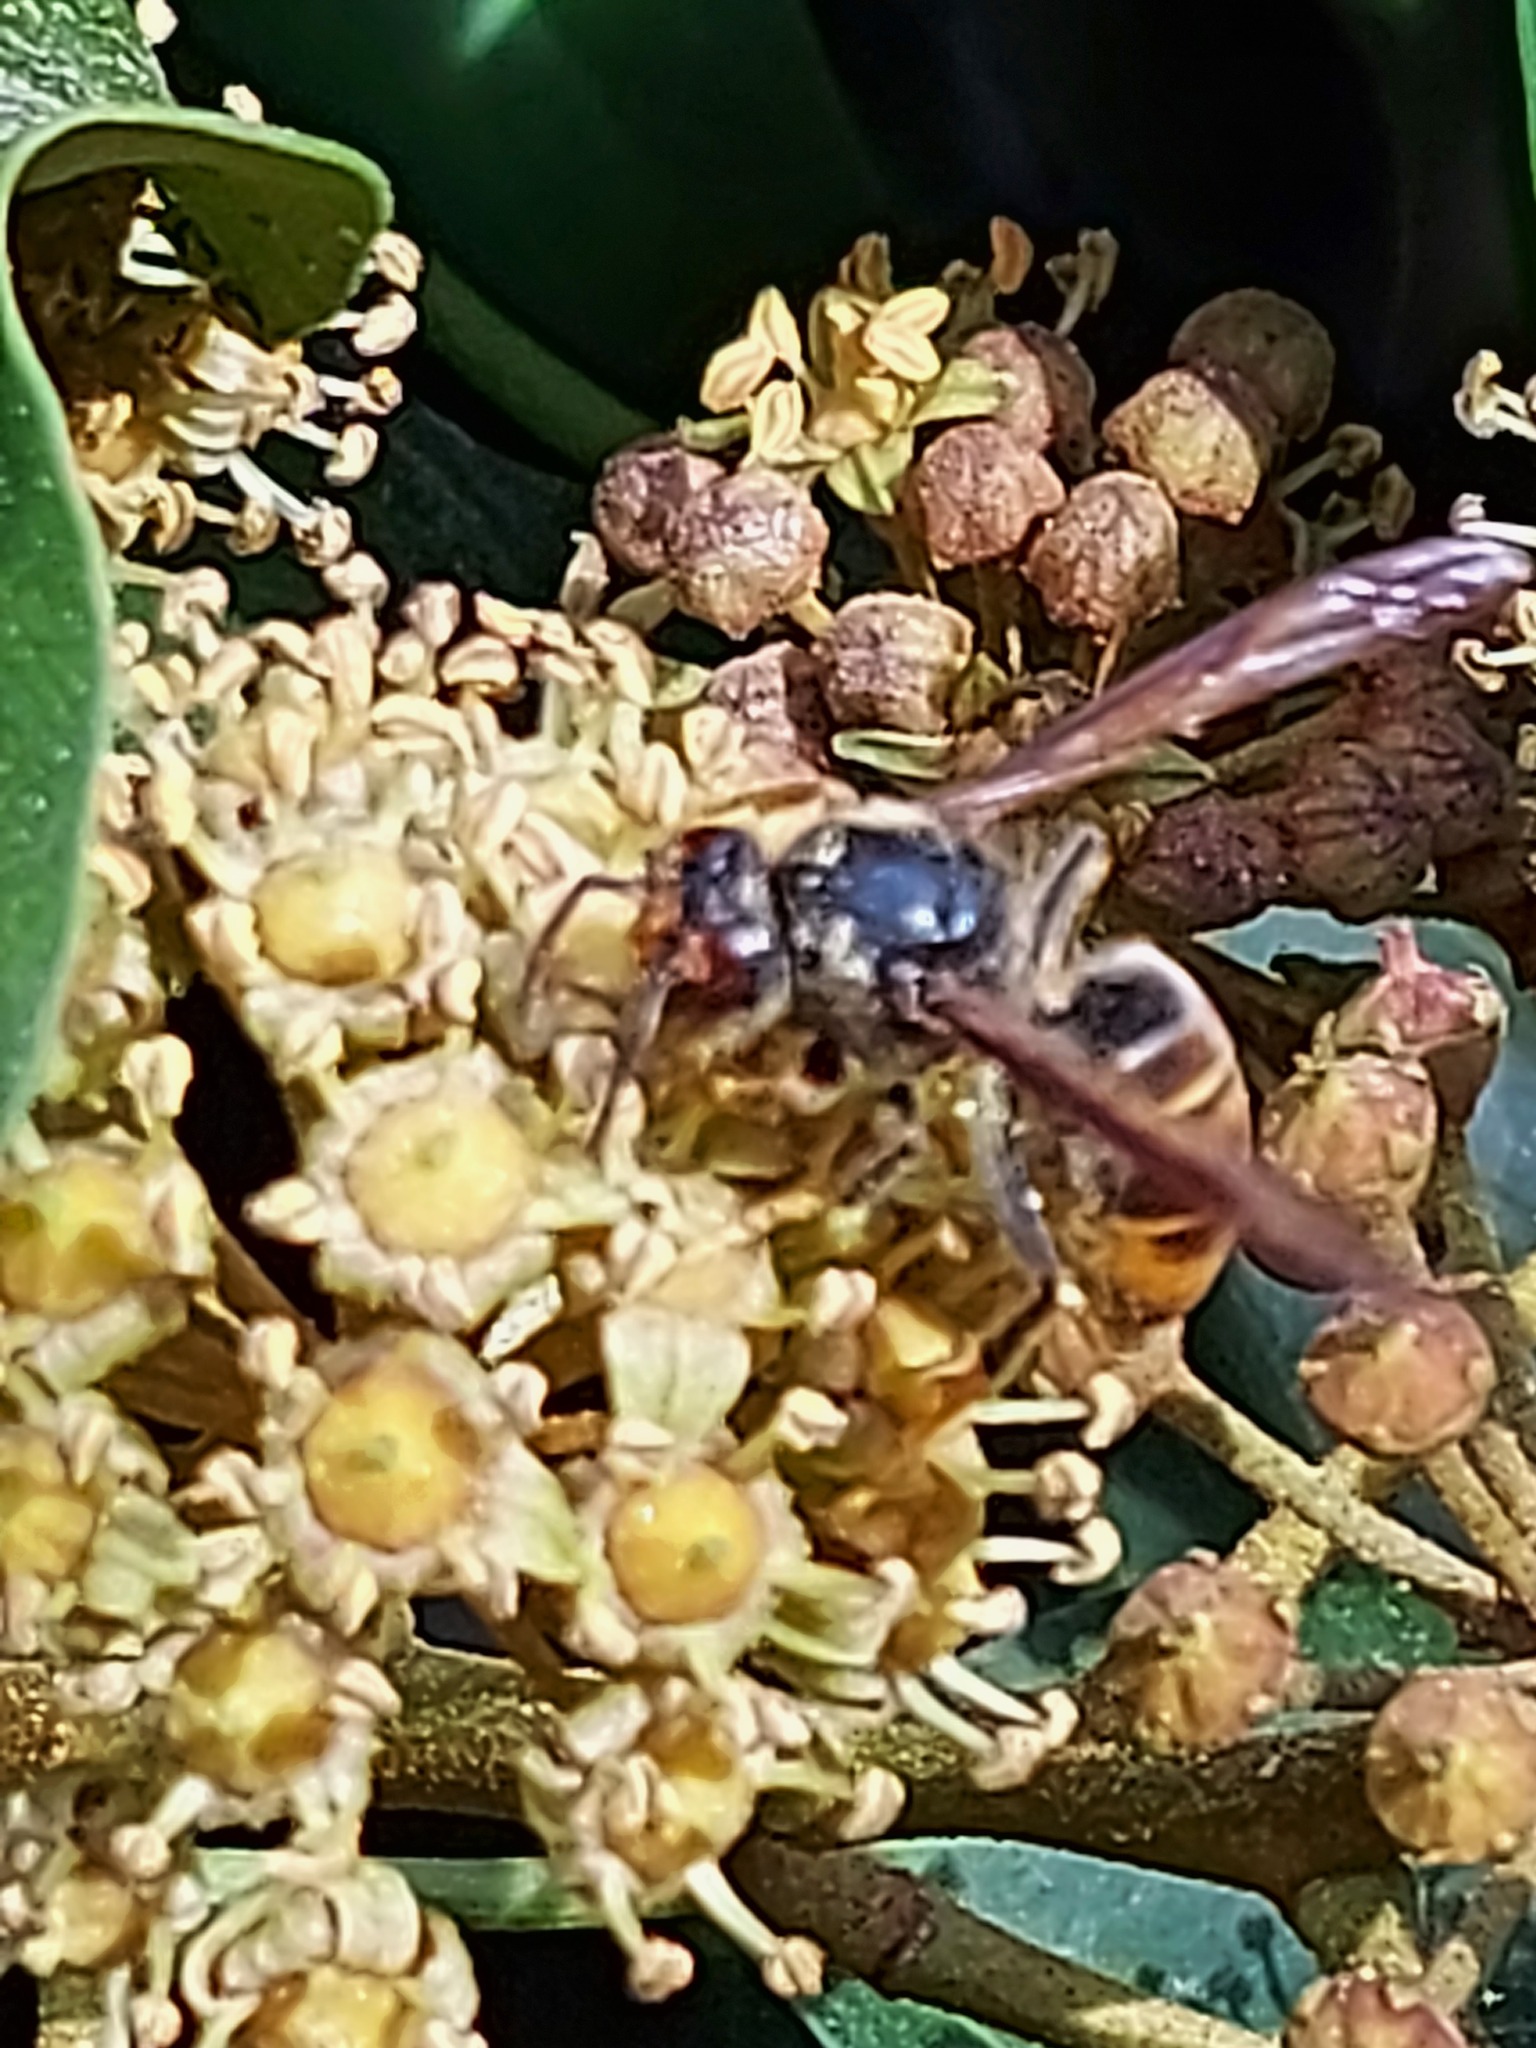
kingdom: Animalia
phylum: Arthropoda
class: Insecta
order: Hymenoptera
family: Vespidae
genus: Vespa
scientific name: Vespa velutina
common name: Asian hornet
